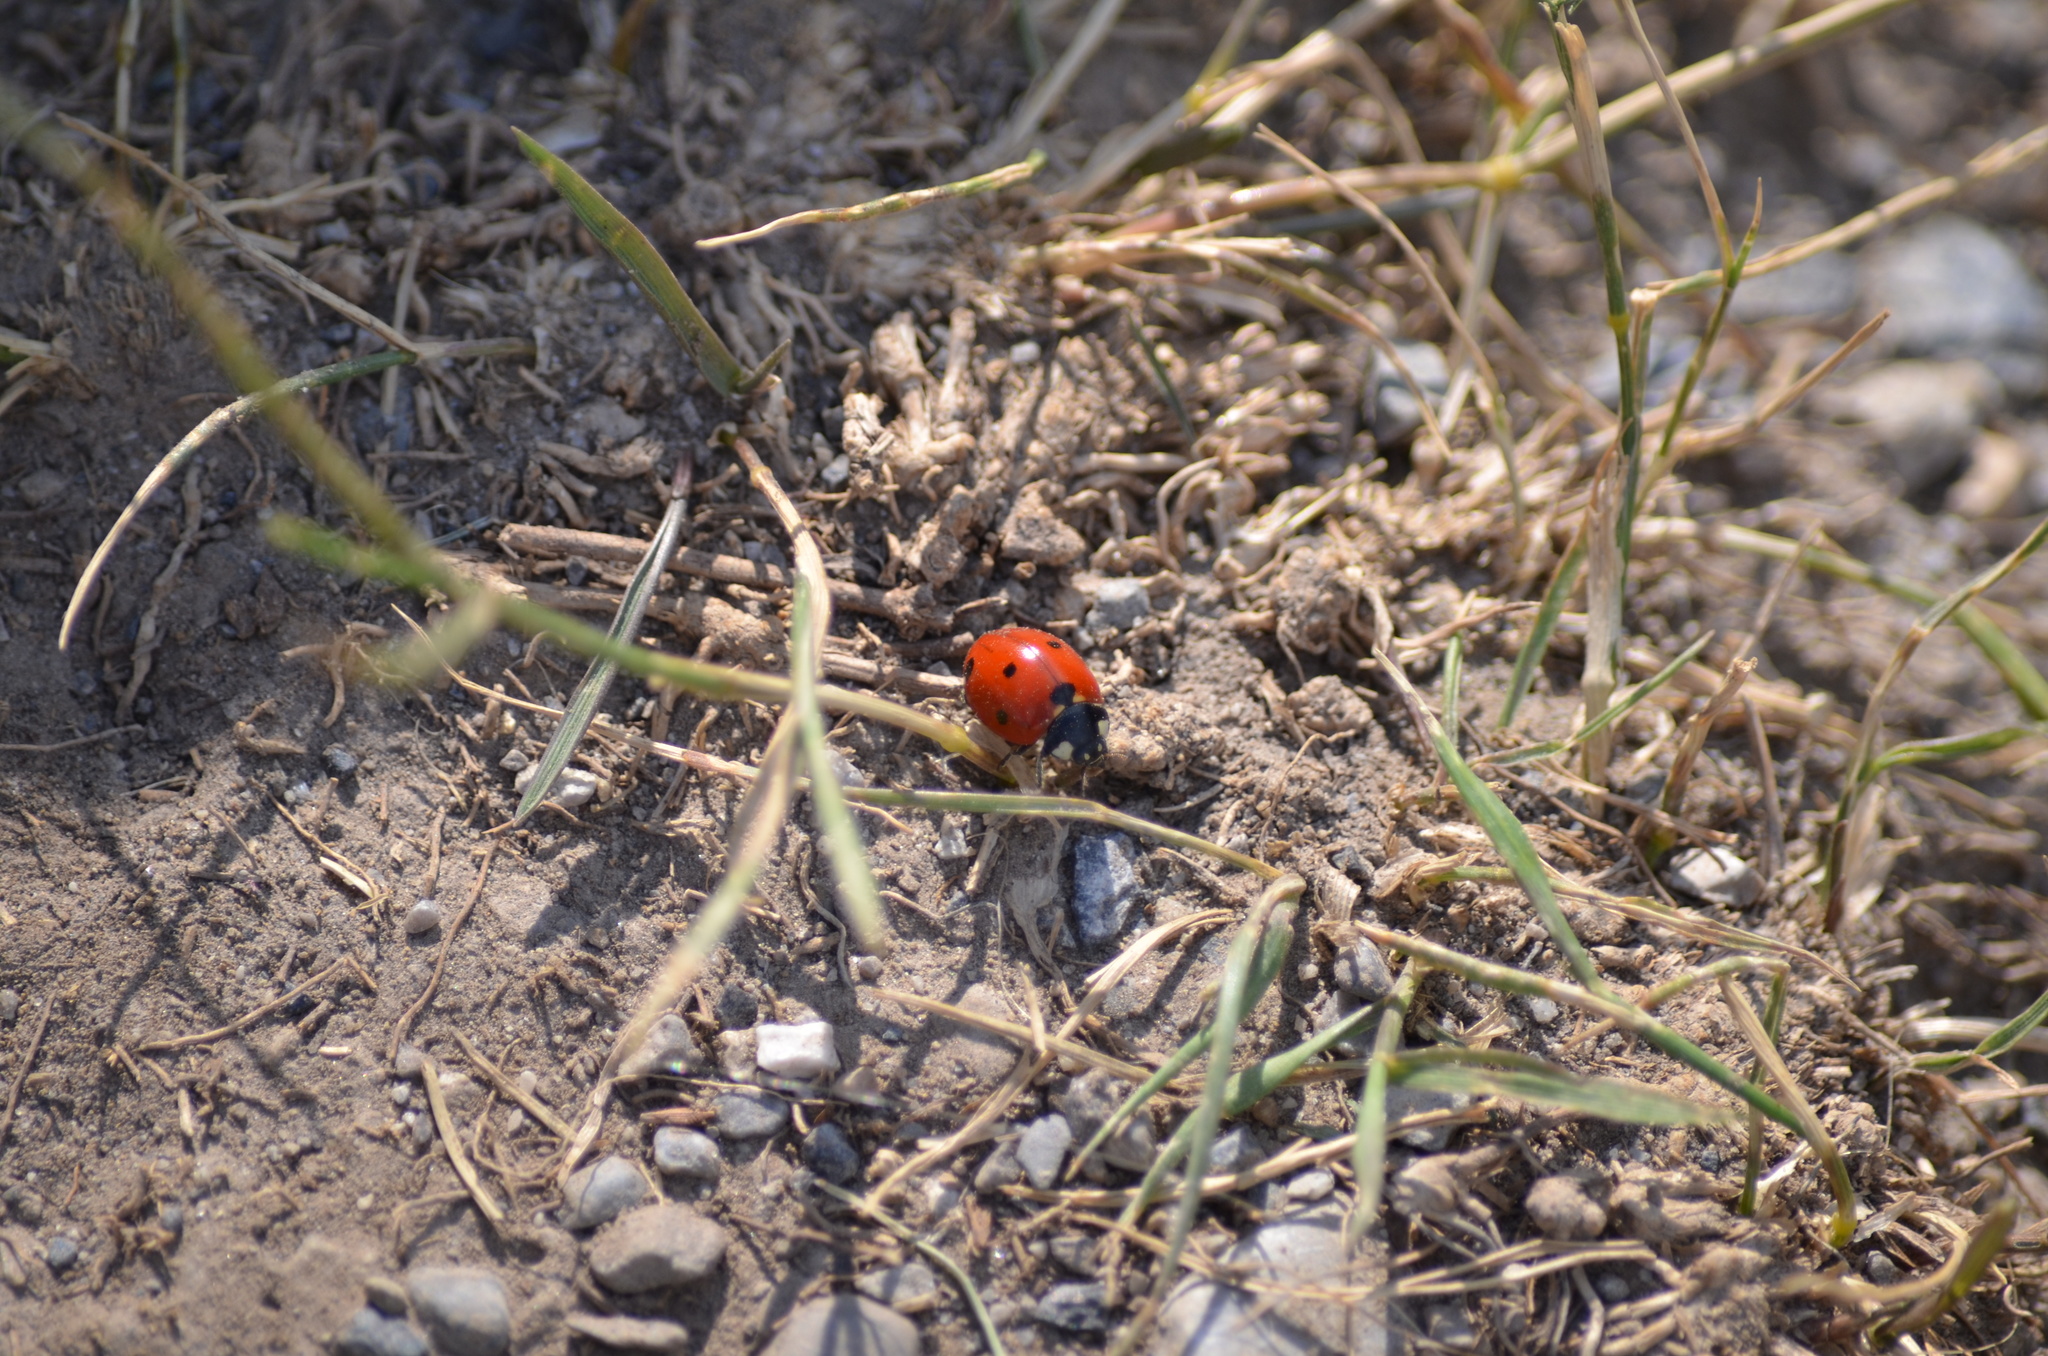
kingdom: Animalia
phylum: Arthropoda
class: Insecta
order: Coleoptera
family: Coccinellidae
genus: Coccinella
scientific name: Coccinella septempunctata
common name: Sevenspotted lady beetle
